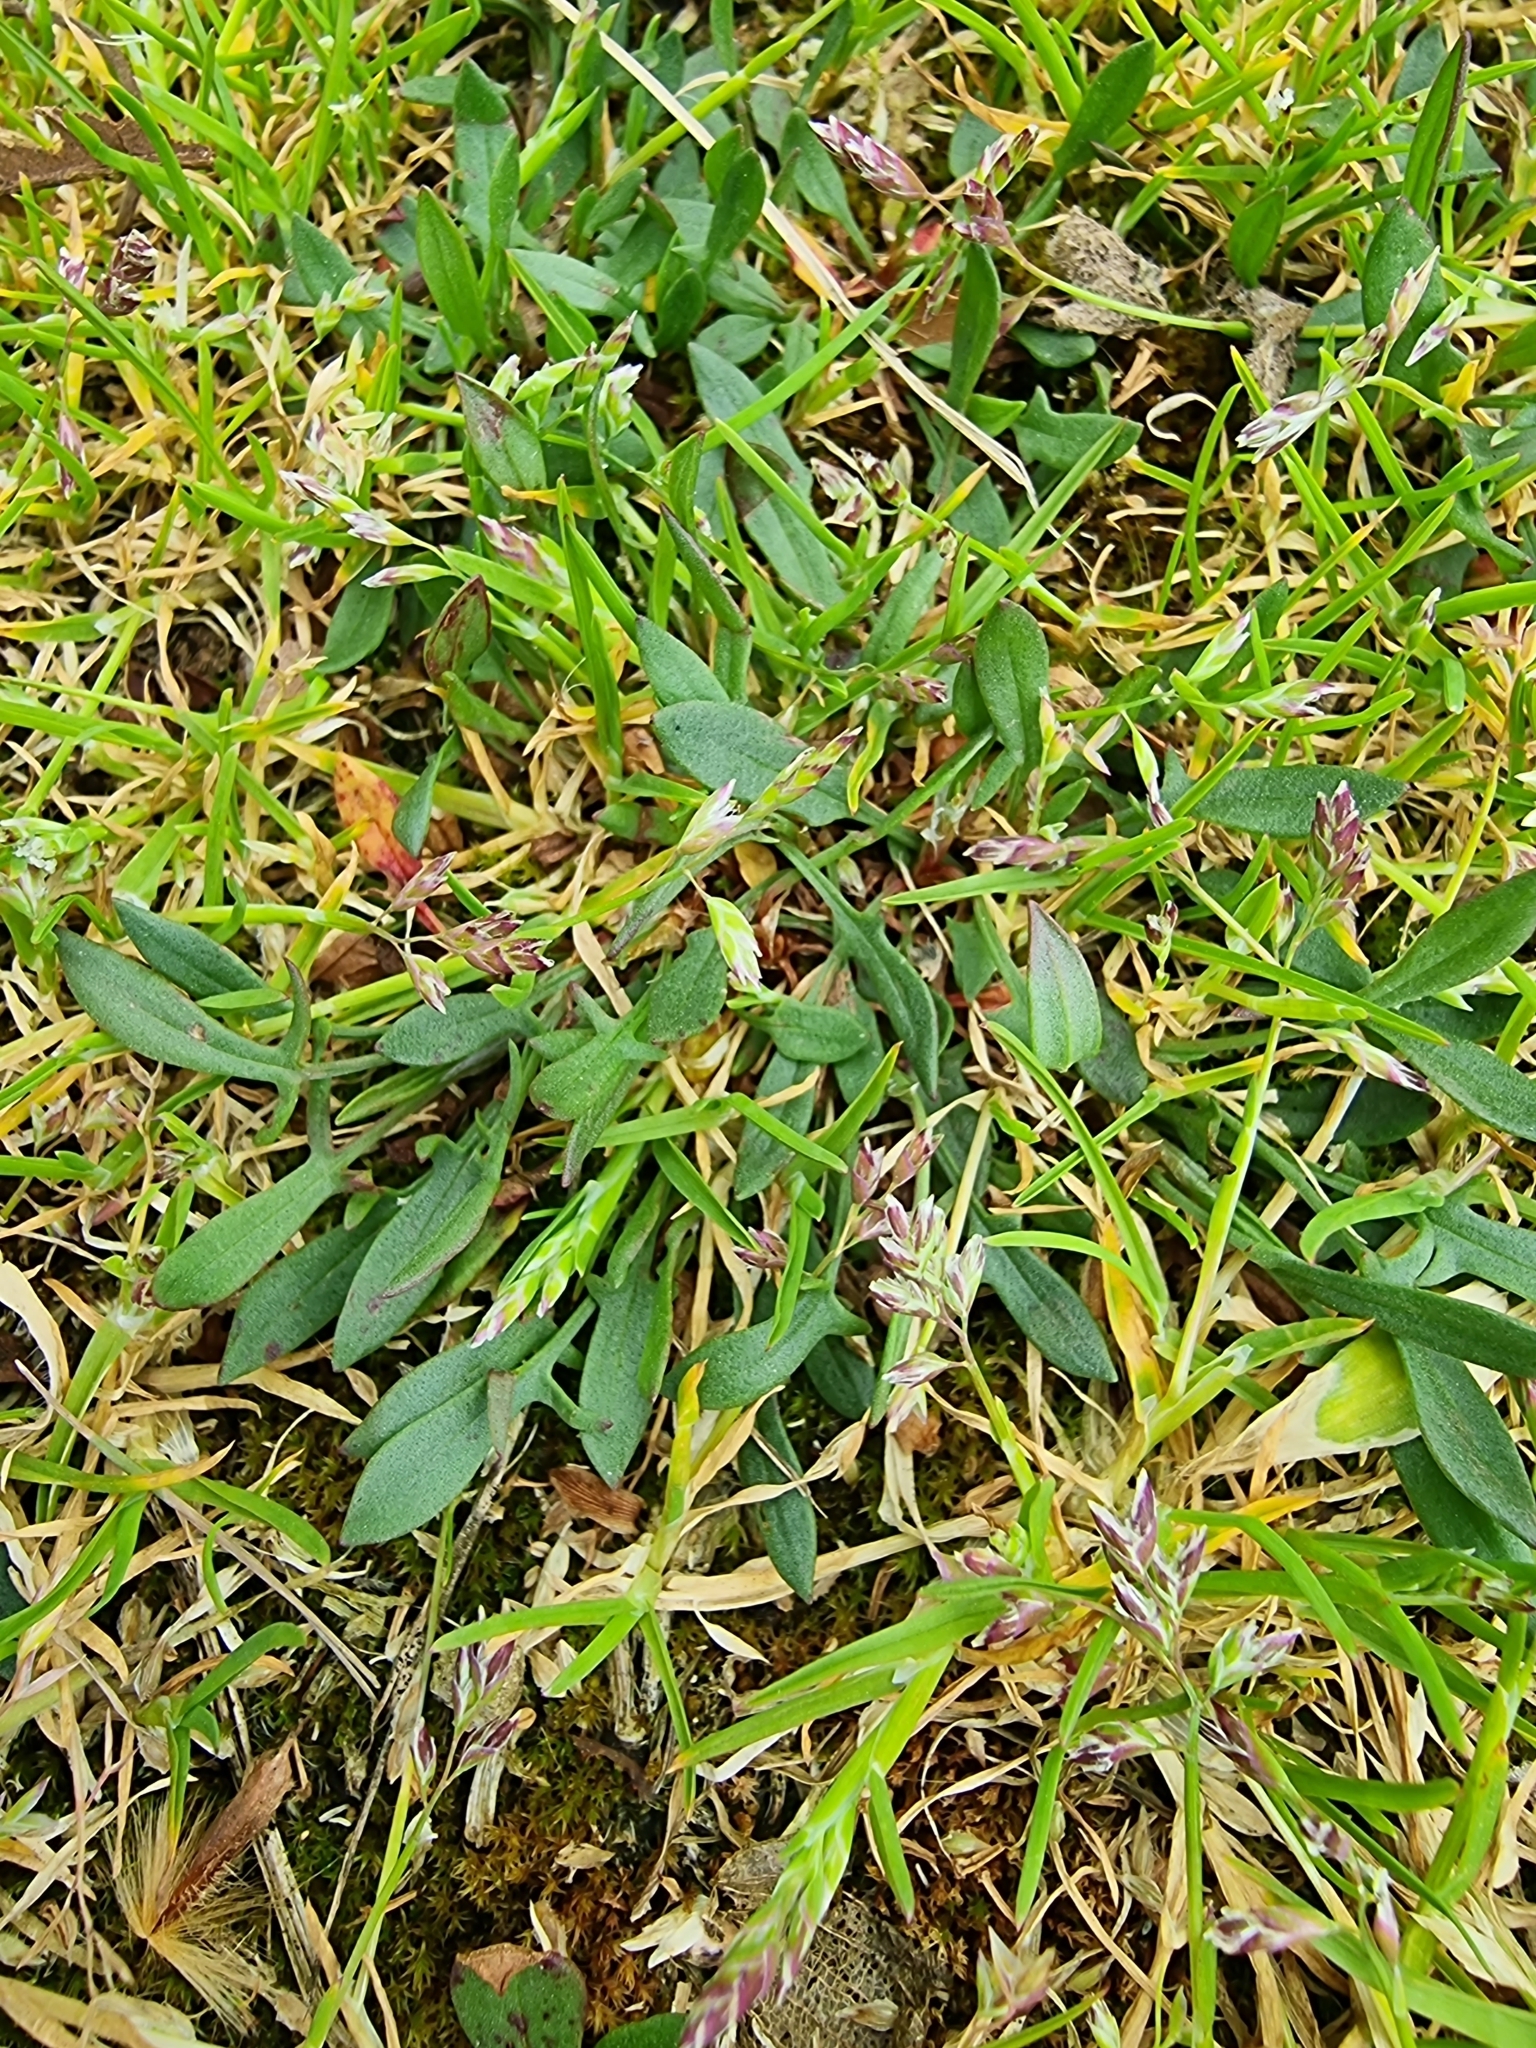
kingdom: Plantae
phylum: Tracheophyta
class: Magnoliopsida
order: Caryophyllales
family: Polygonaceae
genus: Rumex
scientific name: Rumex acetosella
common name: Common sheep sorrel
